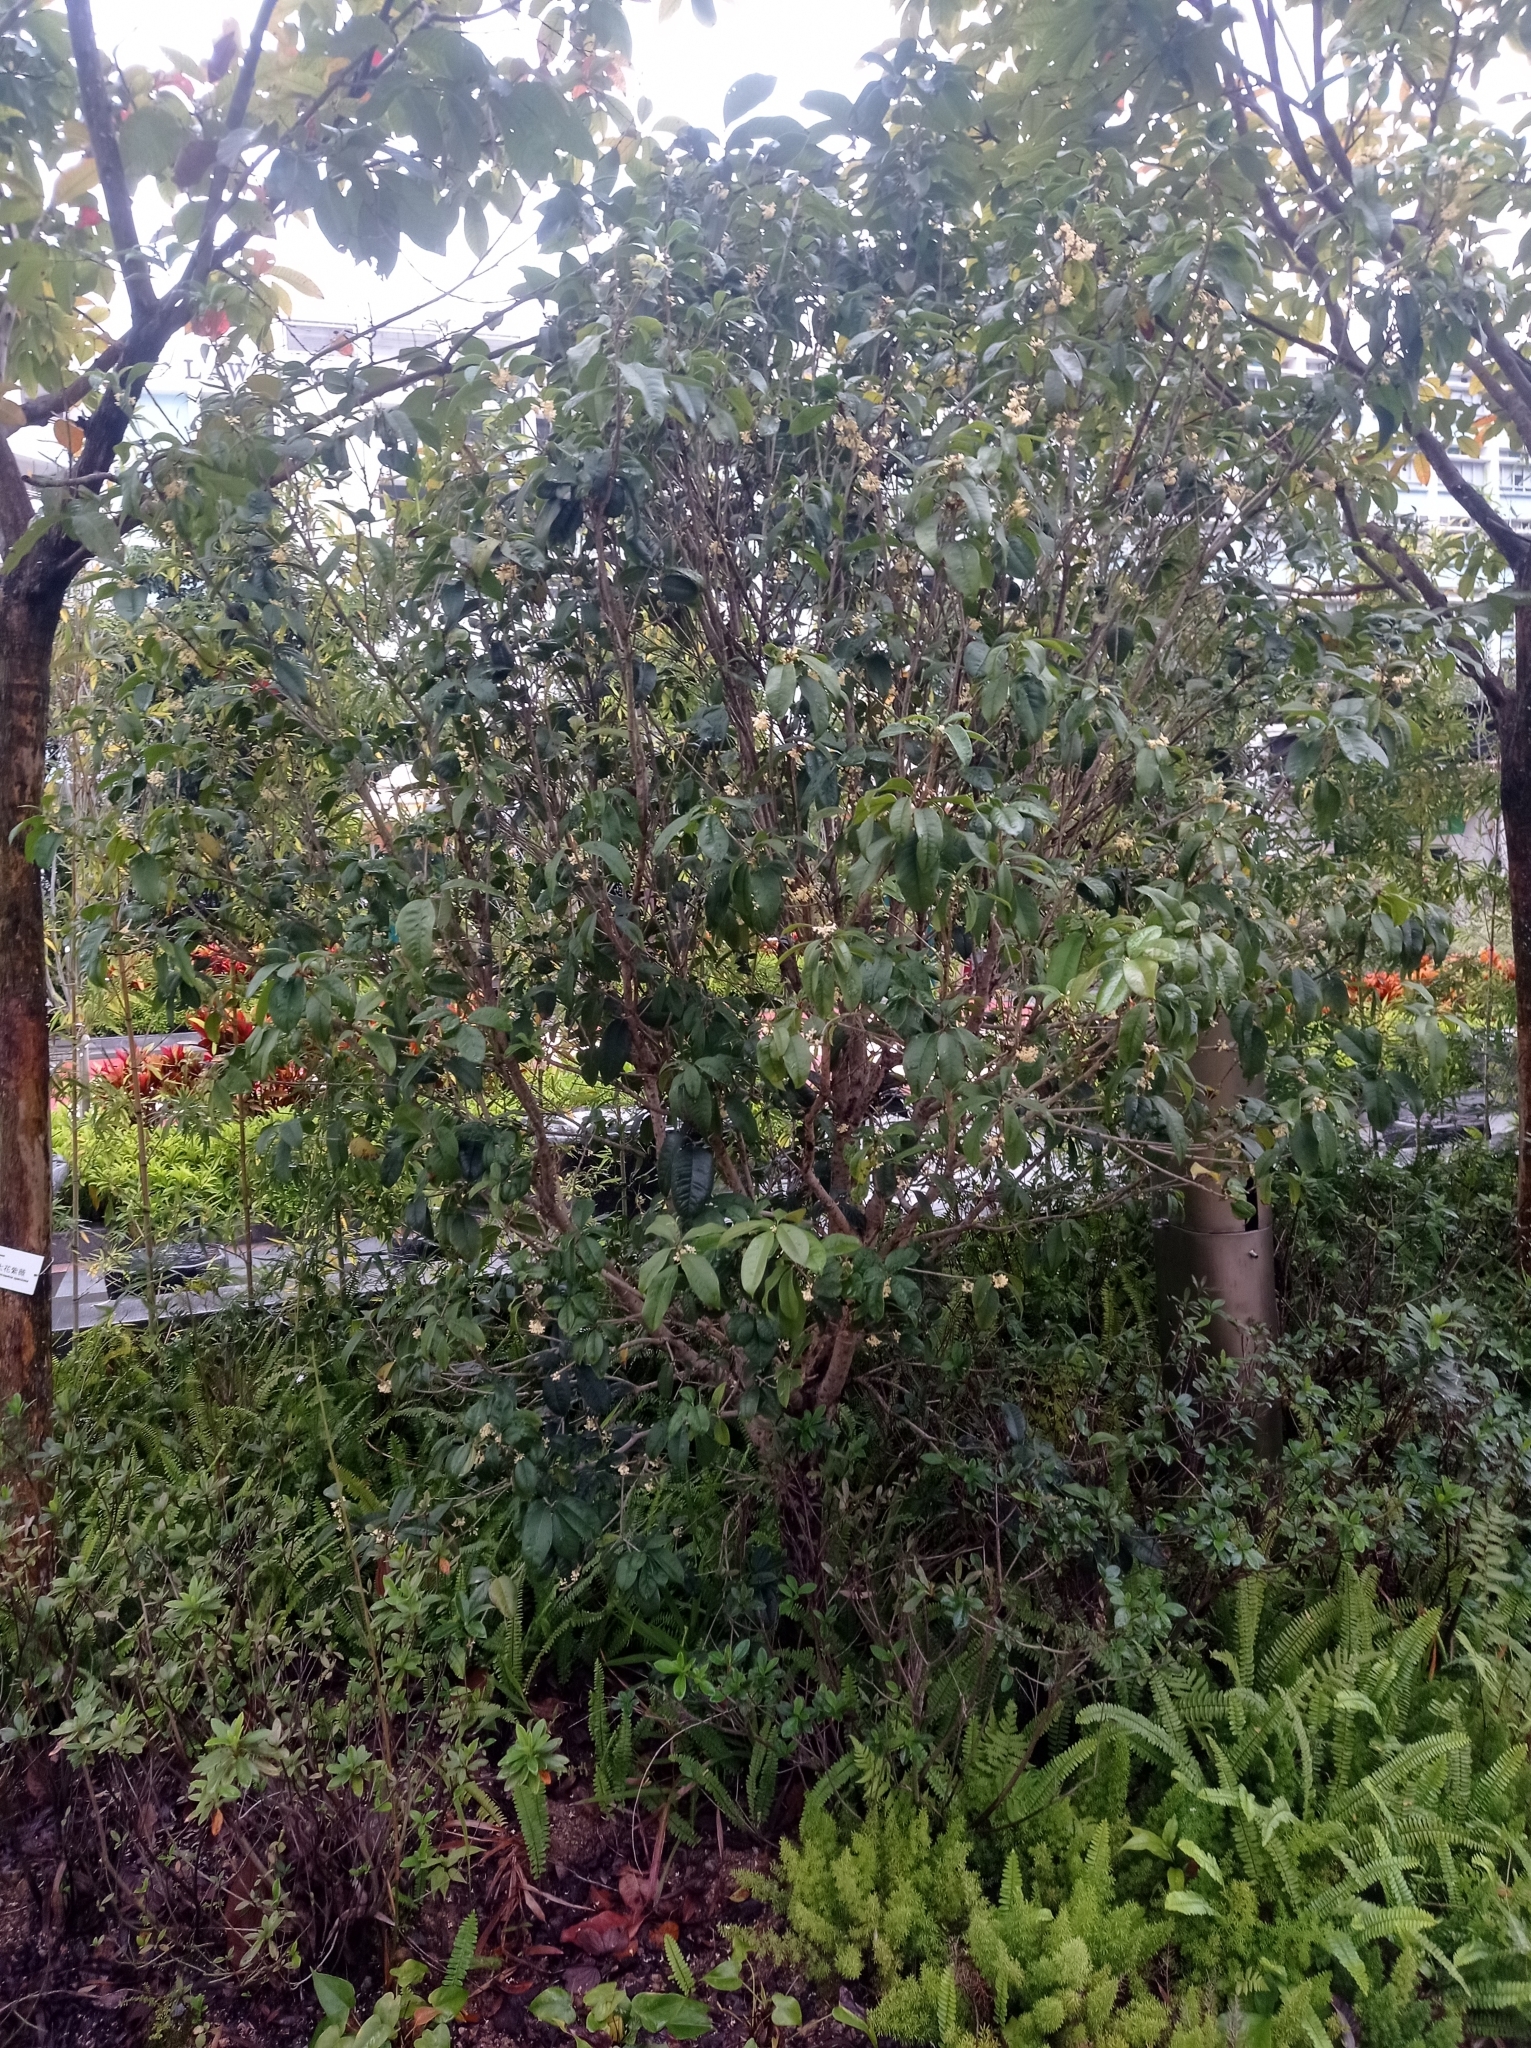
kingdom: Plantae
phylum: Tracheophyta
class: Magnoliopsida
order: Lamiales
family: Oleaceae
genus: Osmanthus
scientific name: Osmanthus fragrans
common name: Sweet osmanthus
